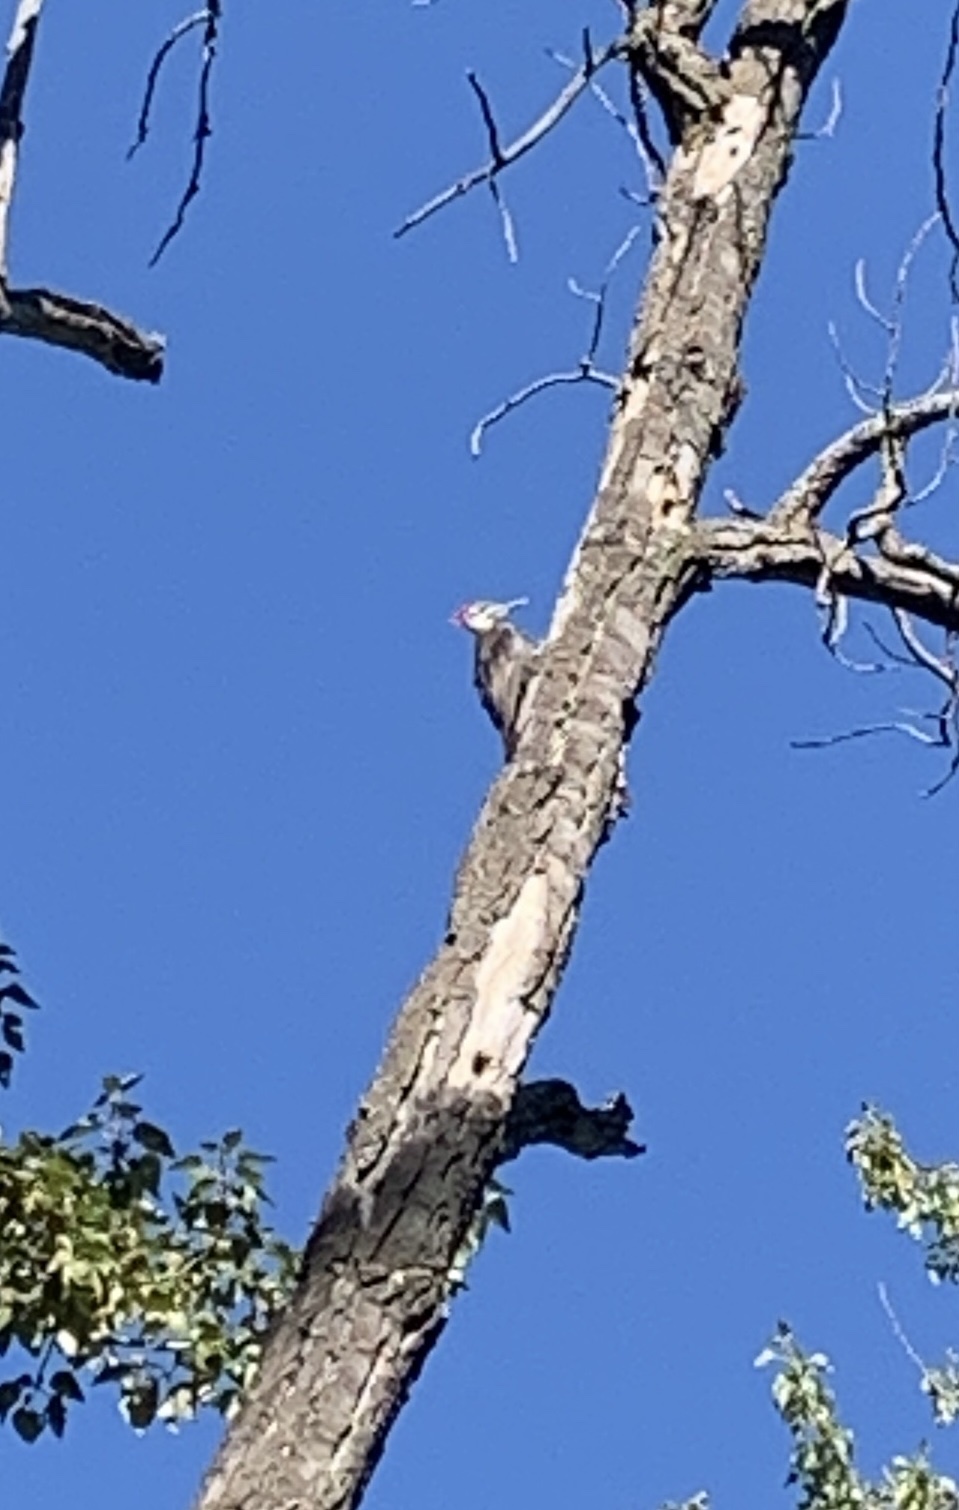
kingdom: Animalia
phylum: Chordata
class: Aves
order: Piciformes
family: Picidae
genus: Dryocopus
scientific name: Dryocopus pileatus
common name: Pileated woodpecker
